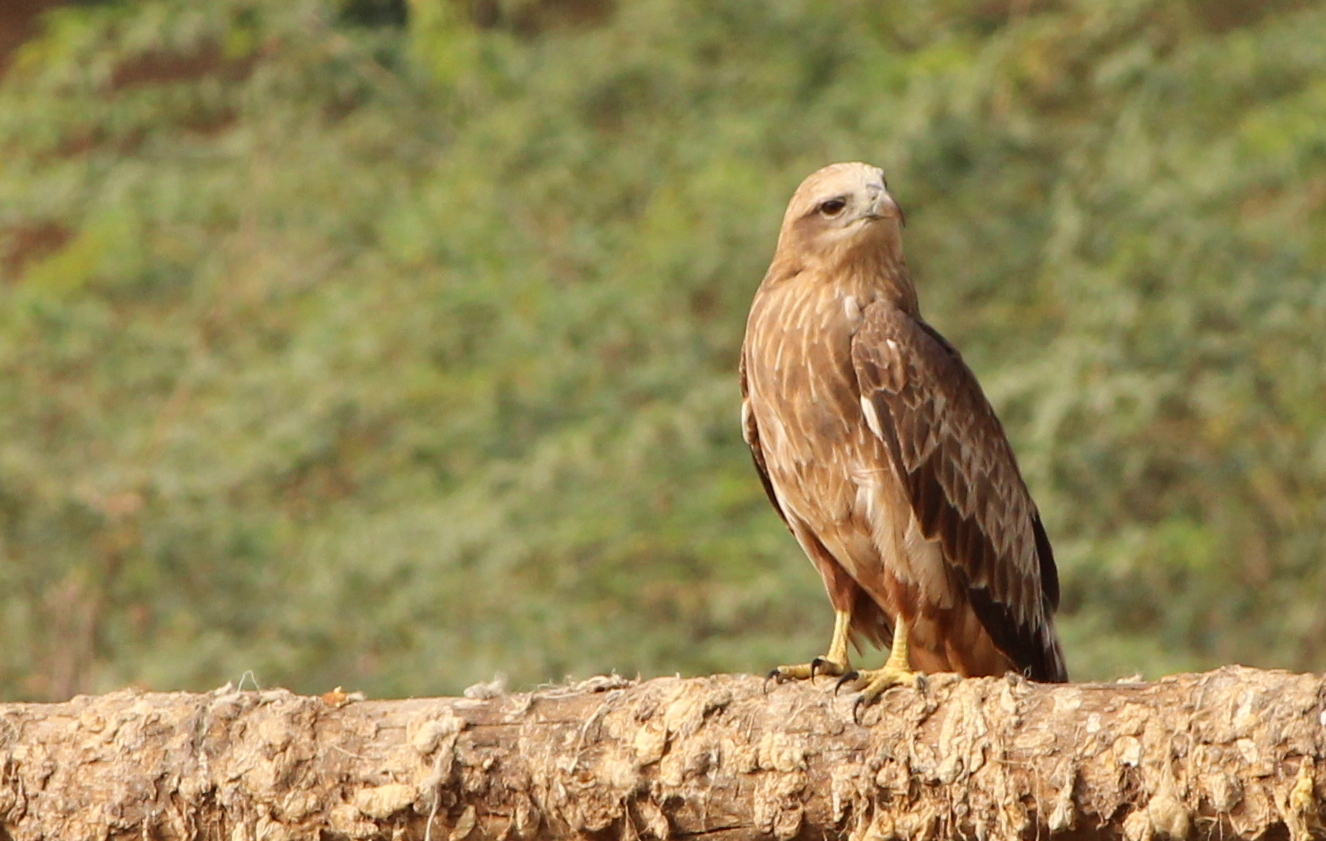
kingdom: Animalia
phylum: Chordata
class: Aves
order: Accipitriformes
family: Accipitridae
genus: Haliastur
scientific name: Haliastur indus
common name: Brahminy kite
